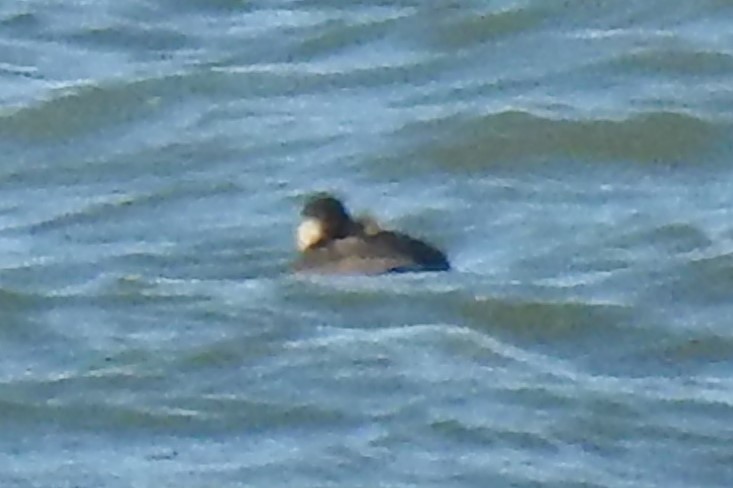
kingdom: Animalia
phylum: Chordata
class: Aves
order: Anseriformes
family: Anatidae
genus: Melanitta
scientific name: Melanitta americana
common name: Black scoter
